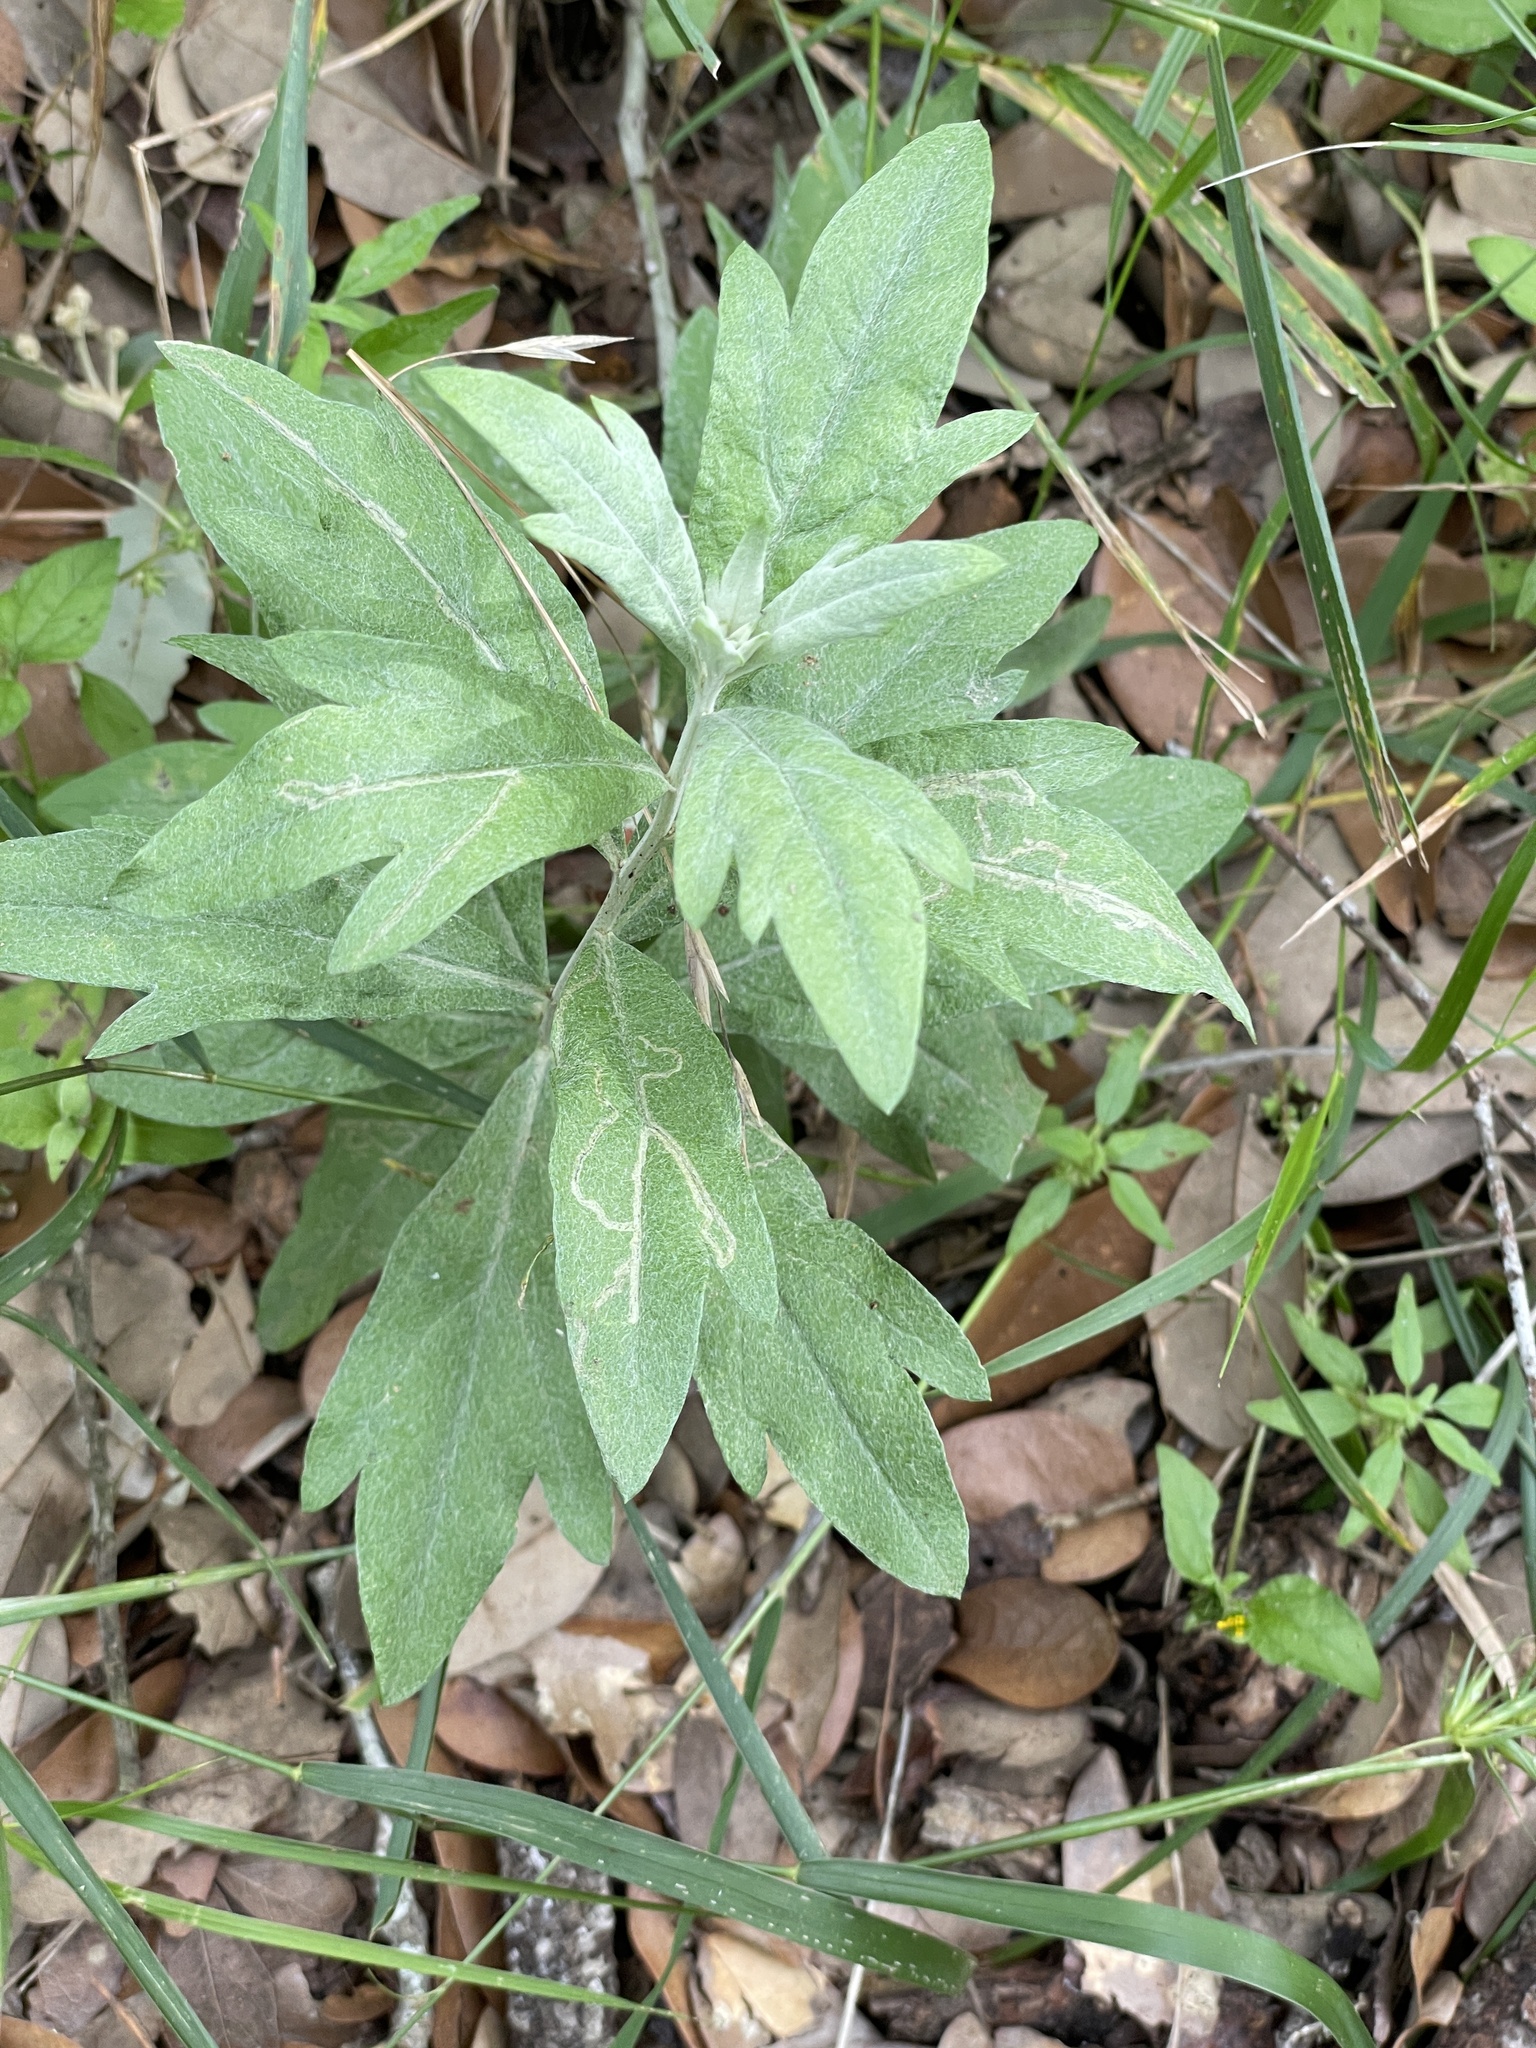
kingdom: Plantae
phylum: Tracheophyta
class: Magnoliopsida
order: Asterales
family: Asteraceae
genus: Artemisia
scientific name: Artemisia ludoviciana
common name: Western mugwort
